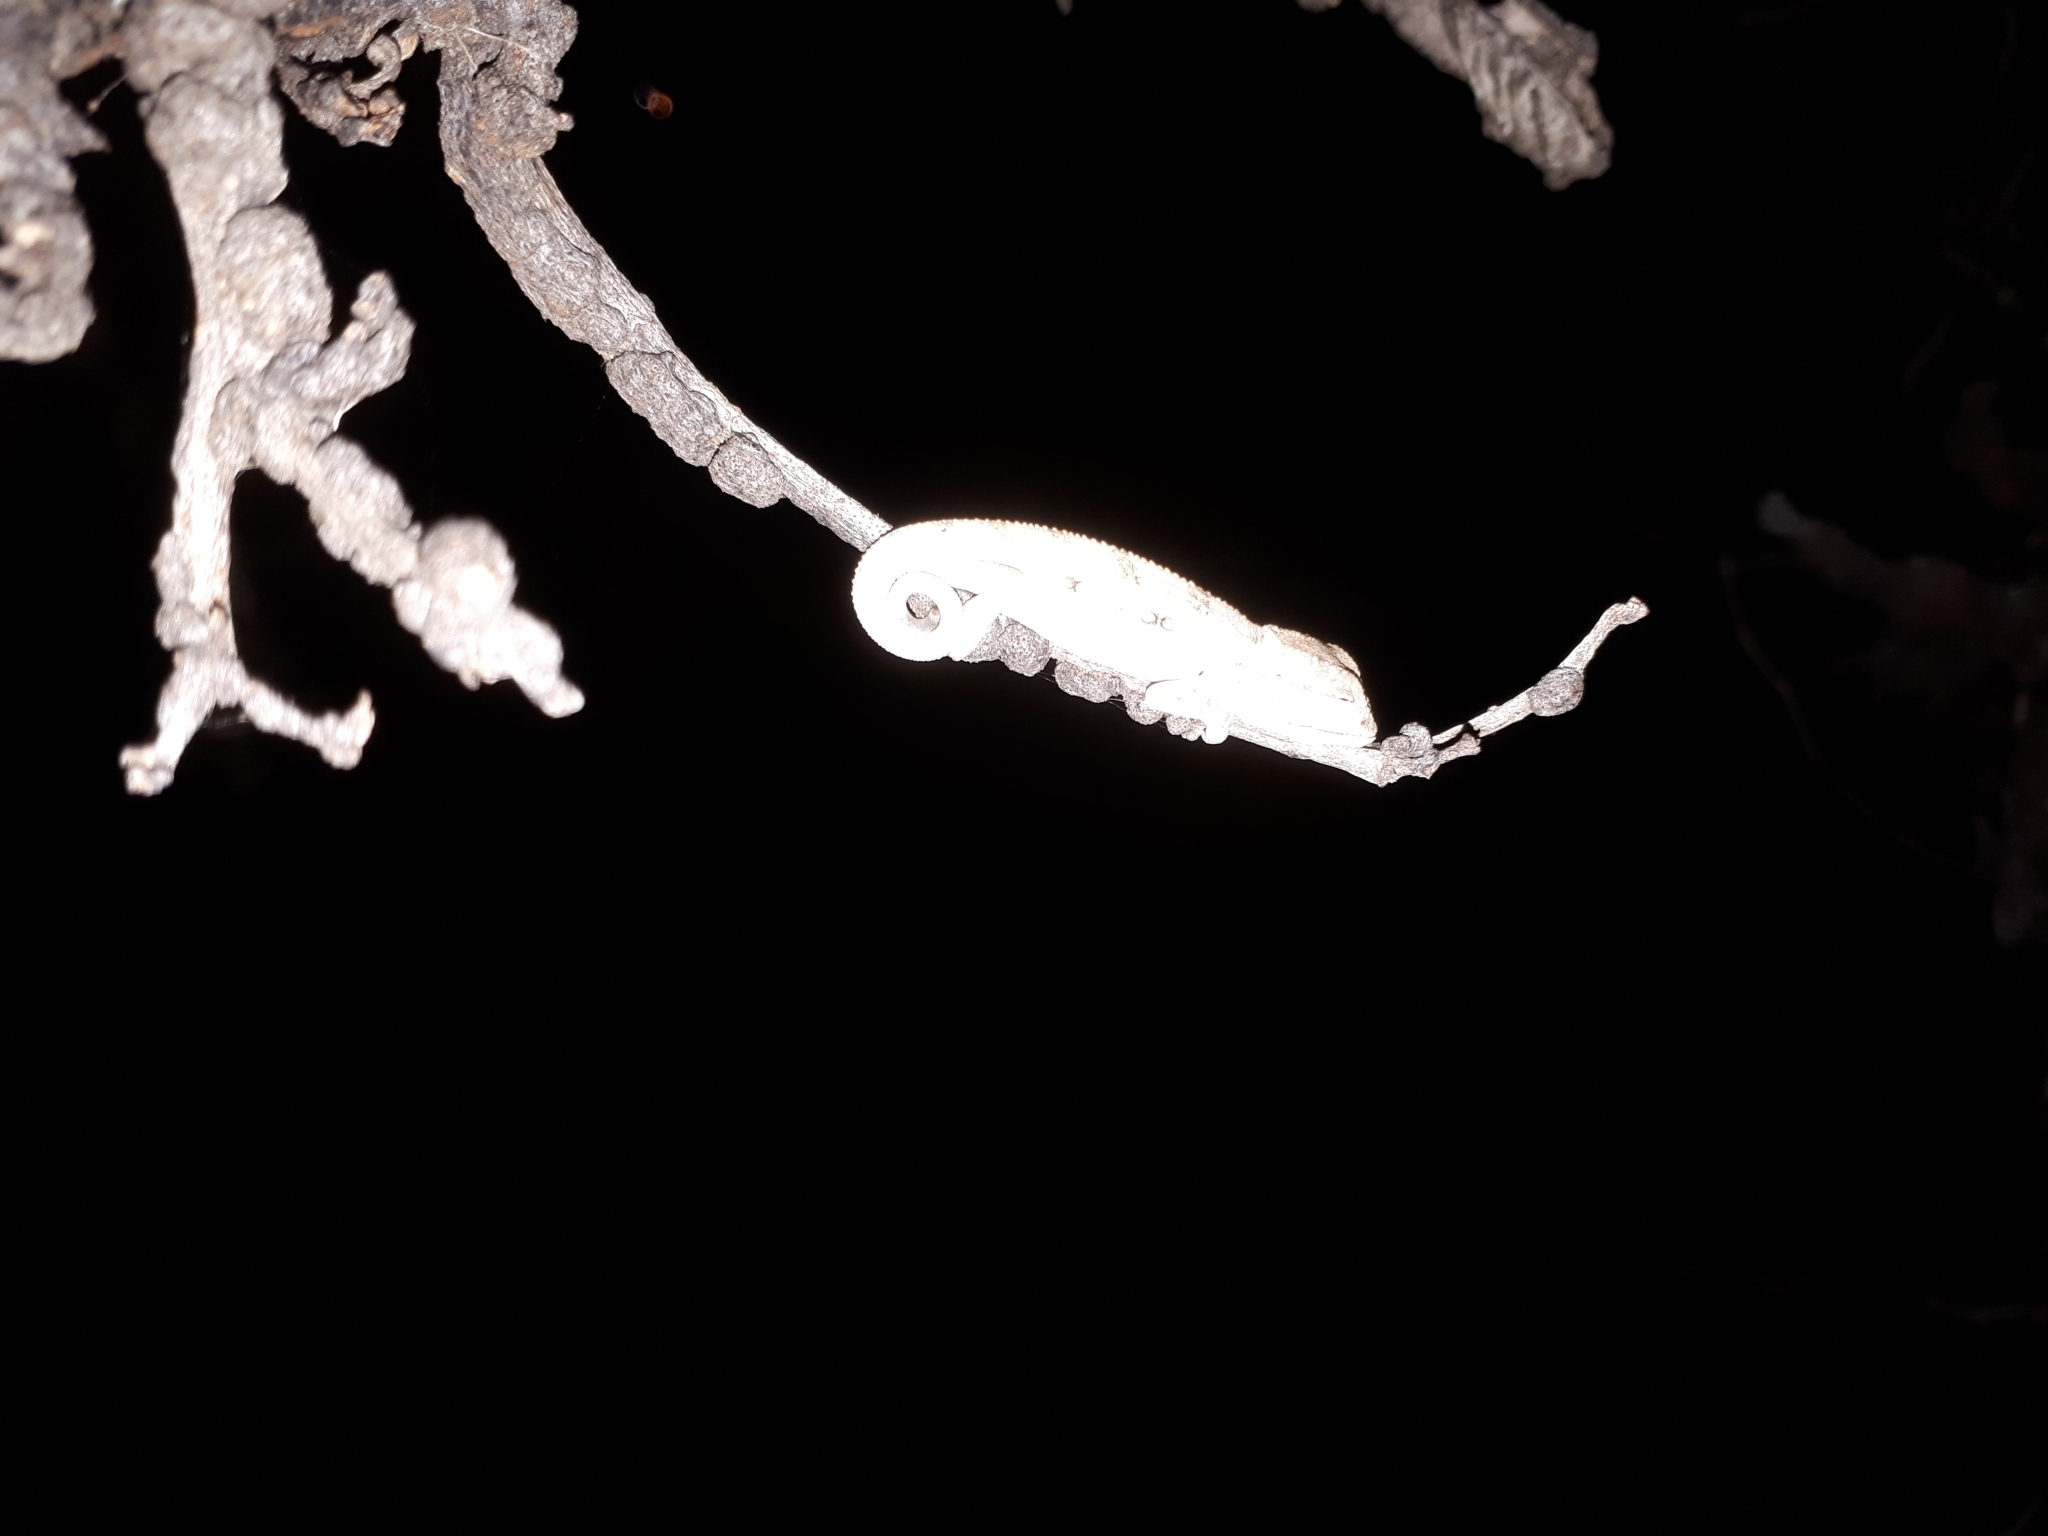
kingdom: Animalia
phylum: Chordata
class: Squamata
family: Chamaeleonidae
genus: Bradypodion
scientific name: Bradypodion pumilum
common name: Cape dwarf chameleon
